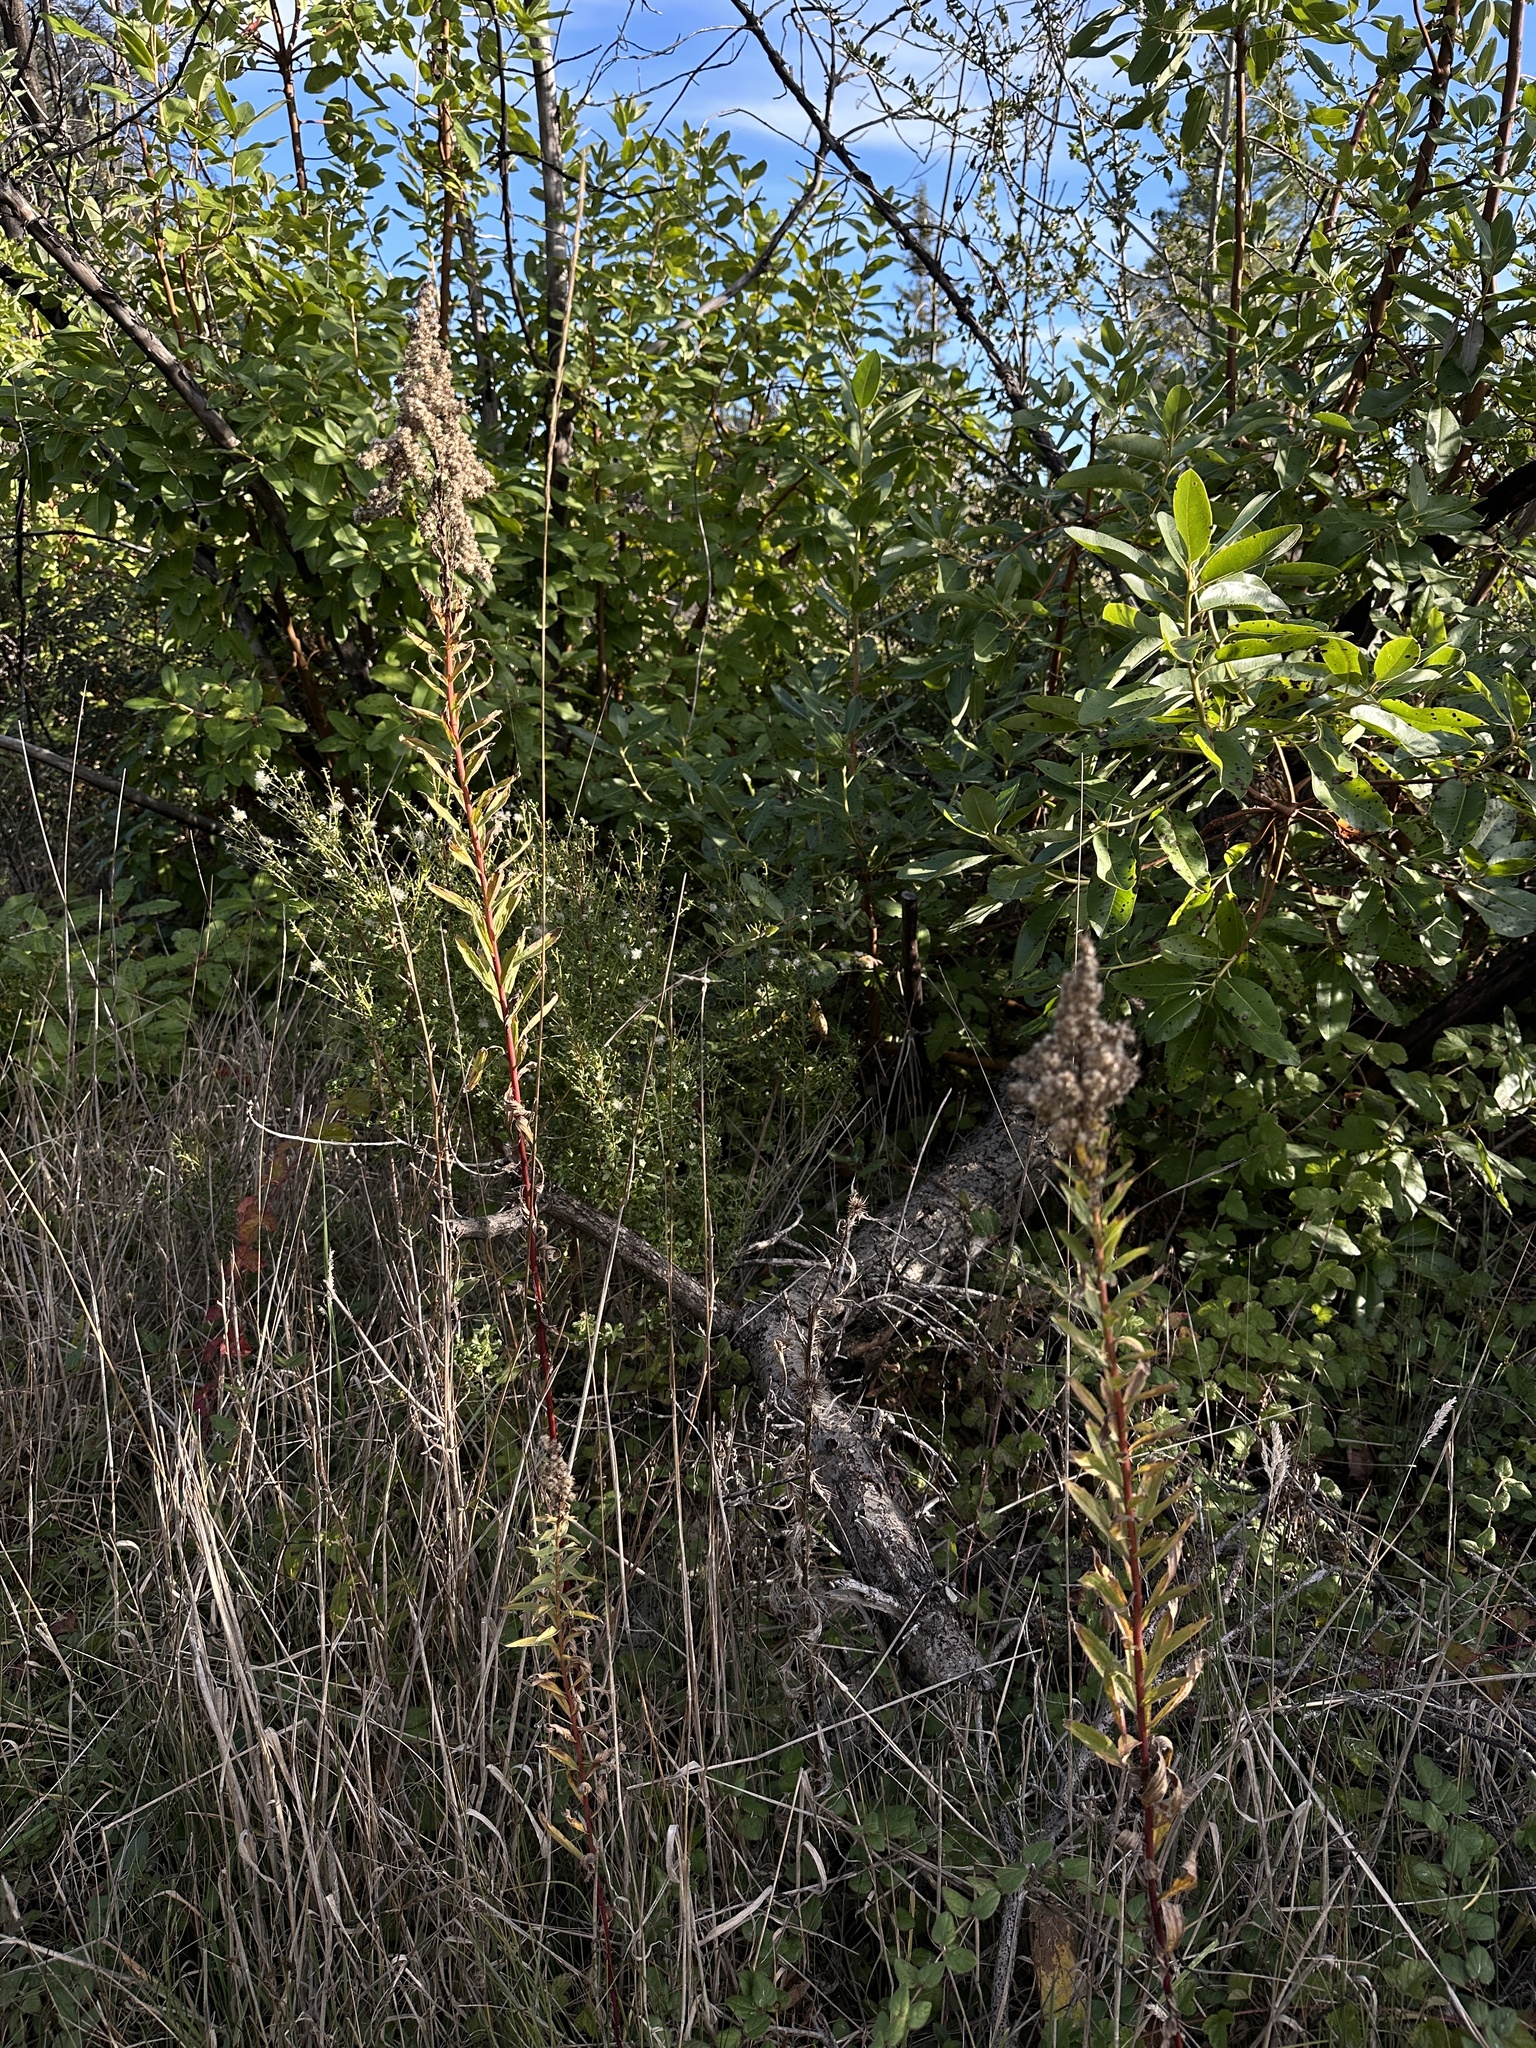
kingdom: Plantae
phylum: Tracheophyta
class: Magnoliopsida
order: Asterales
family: Asteraceae
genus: Solidago
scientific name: Solidago elongata
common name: Cascade canada goldenrod
